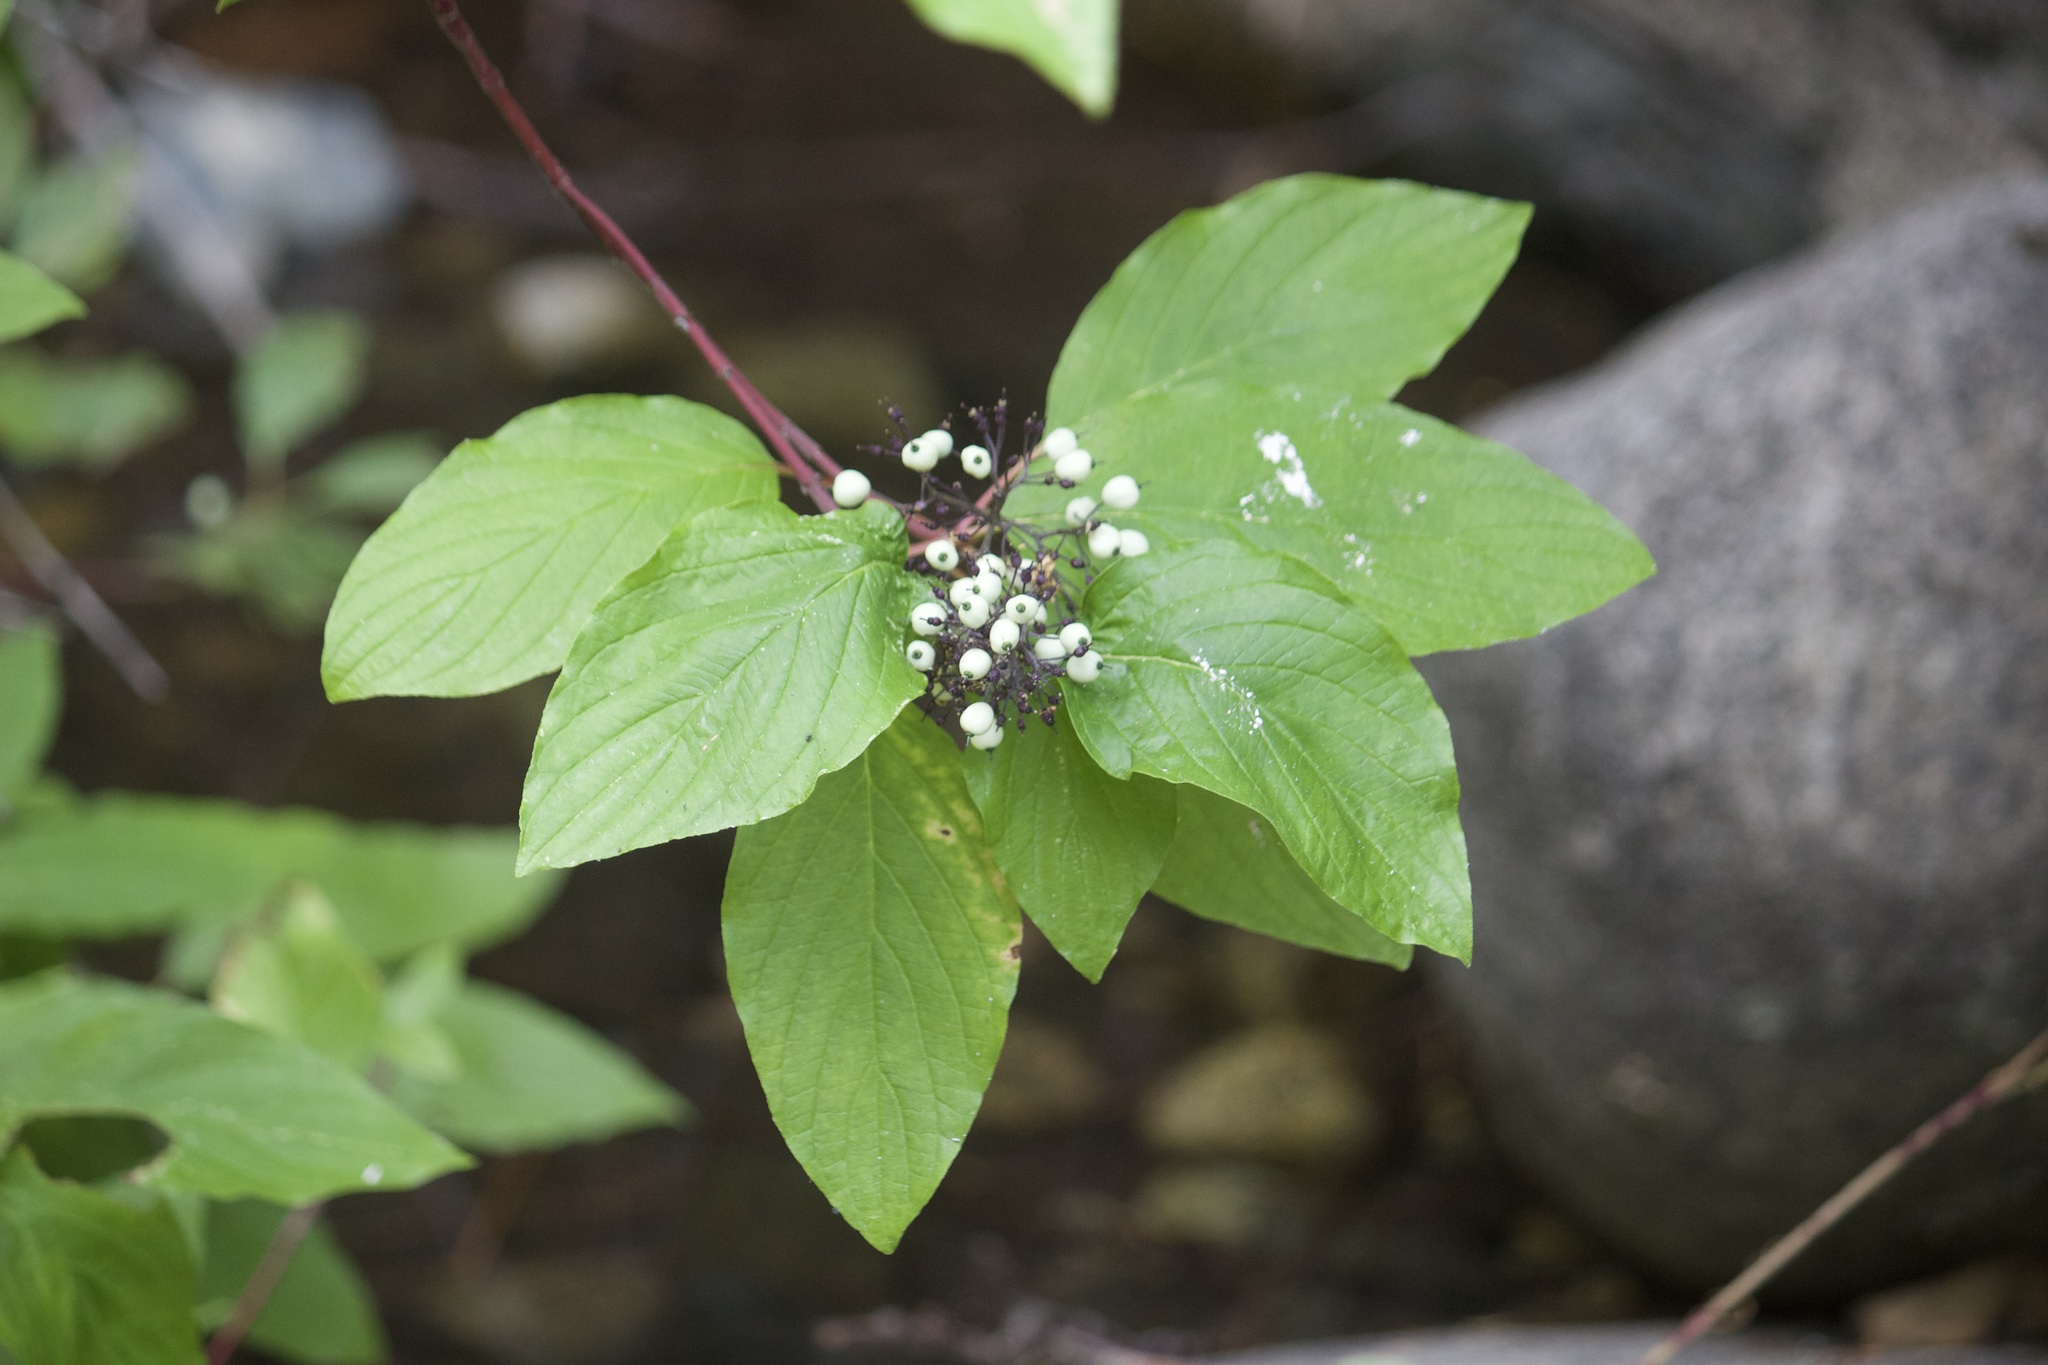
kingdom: Plantae
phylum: Tracheophyta
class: Magnoliopsida
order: Cornales
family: Cornaceae
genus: Cornus
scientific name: Cornus sericea
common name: Red-osier dogwood
